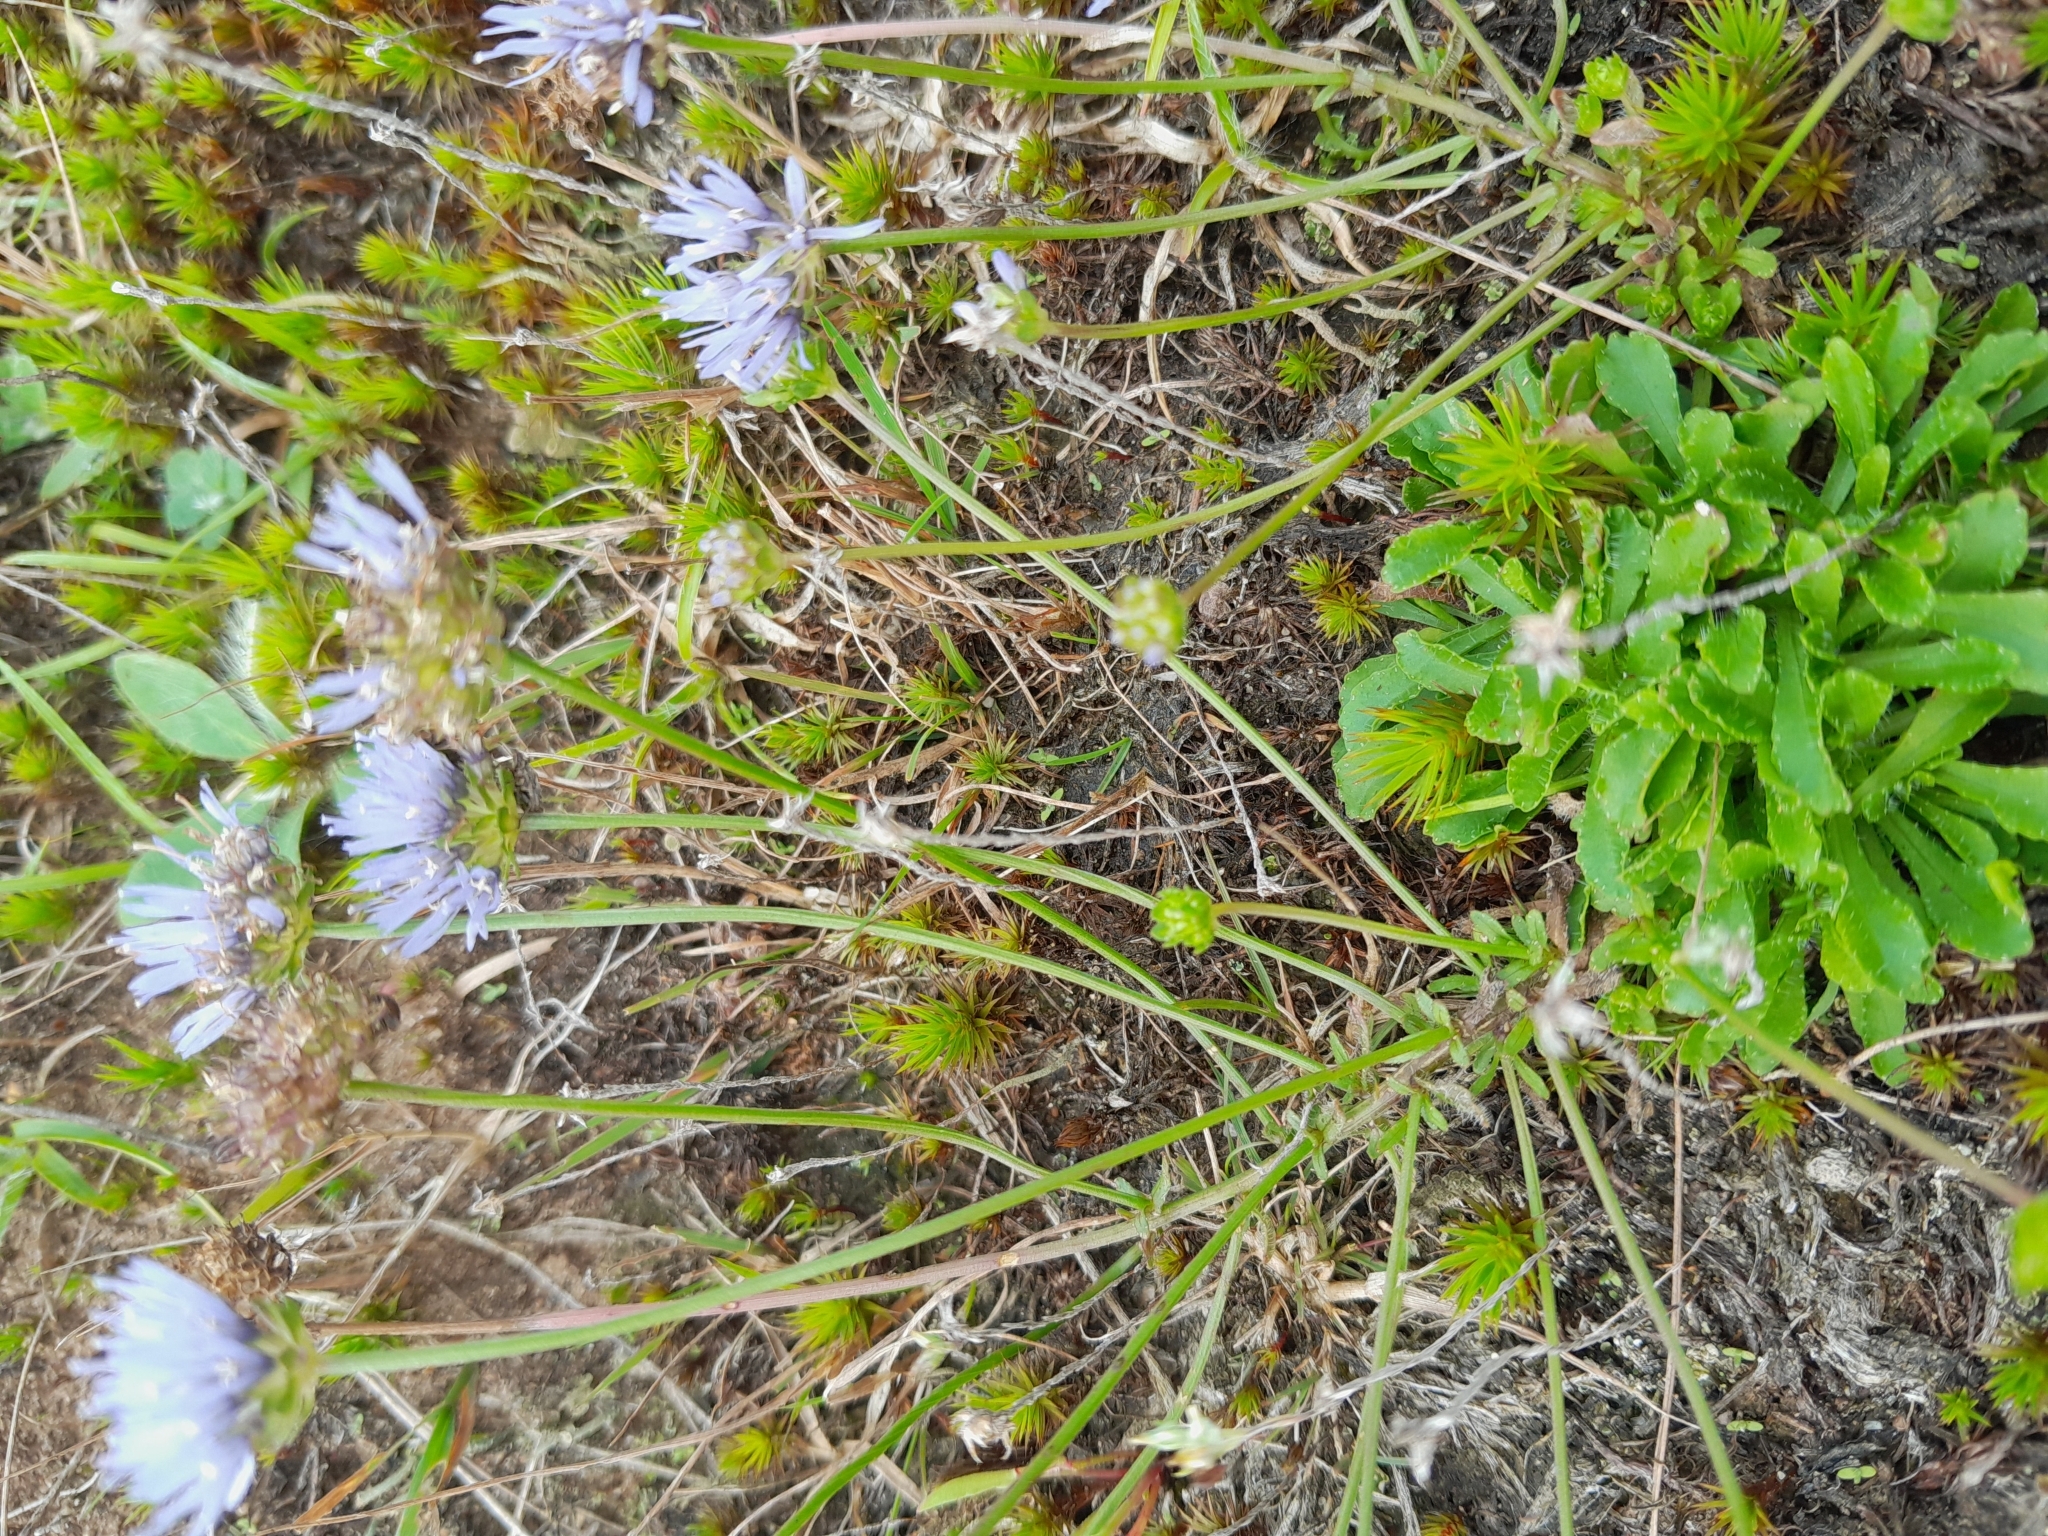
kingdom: Plantae
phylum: Tracheophyta
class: Magnoliopsida
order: Asterales
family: Campanulaceae
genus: Jasione
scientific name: Jasione montana
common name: Sheep's-bit
